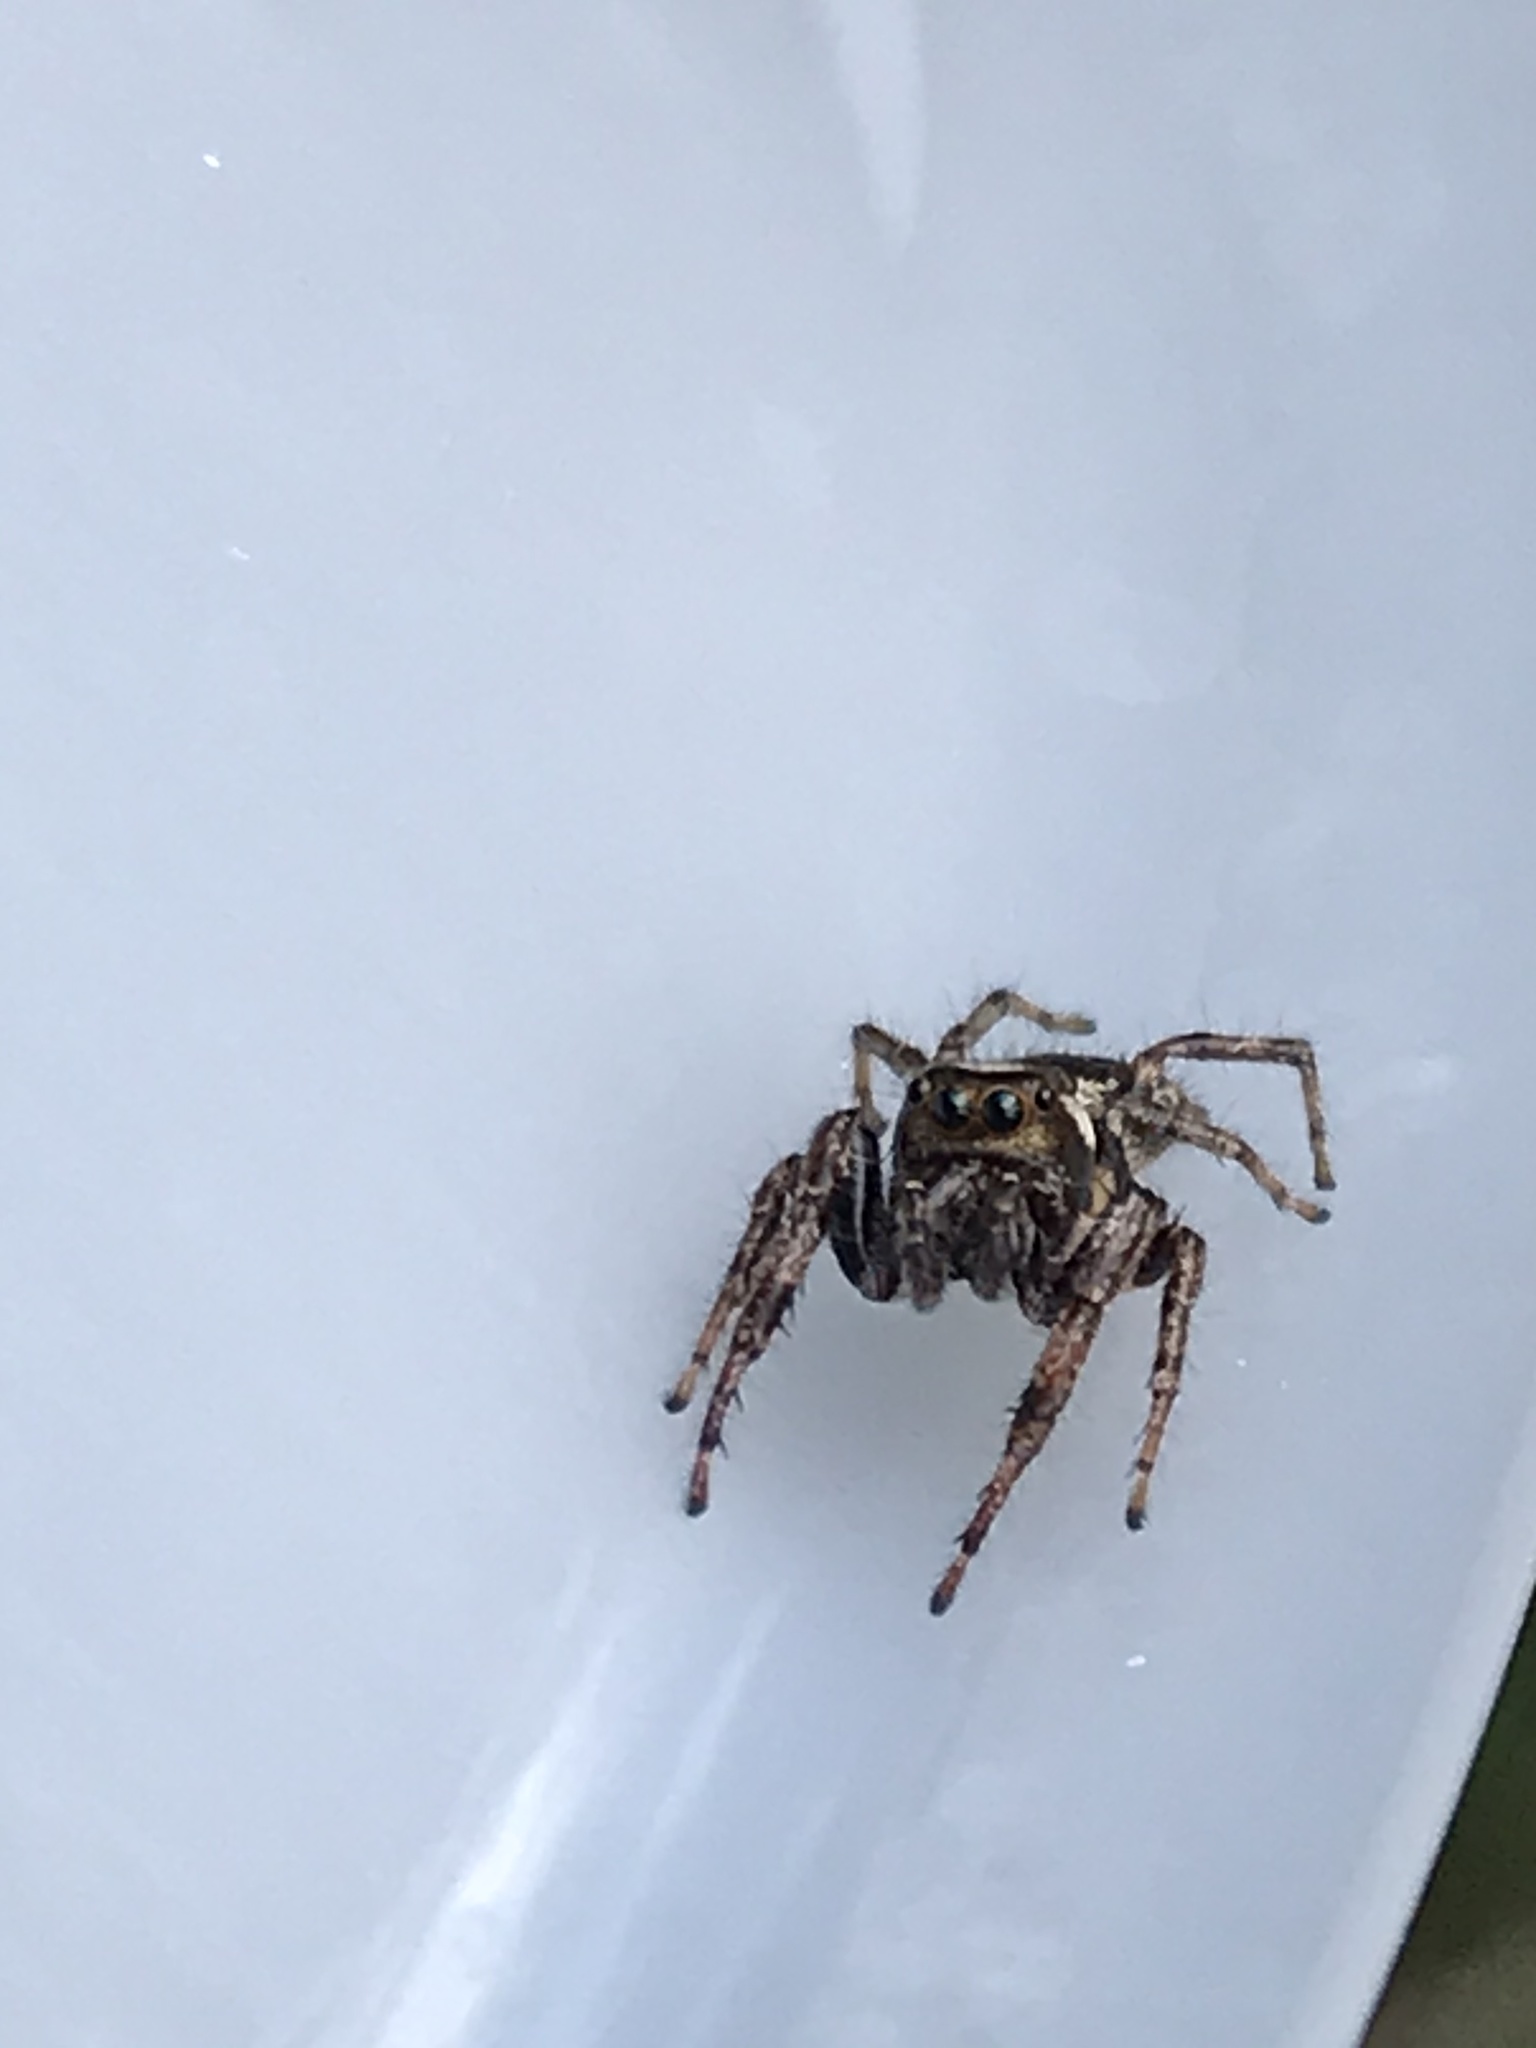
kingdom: Animalia
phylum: Arthropoda
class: Arachnida
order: Araneae
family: Salticidae
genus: Eris
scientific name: Eris militaris
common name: Bronze jumper
